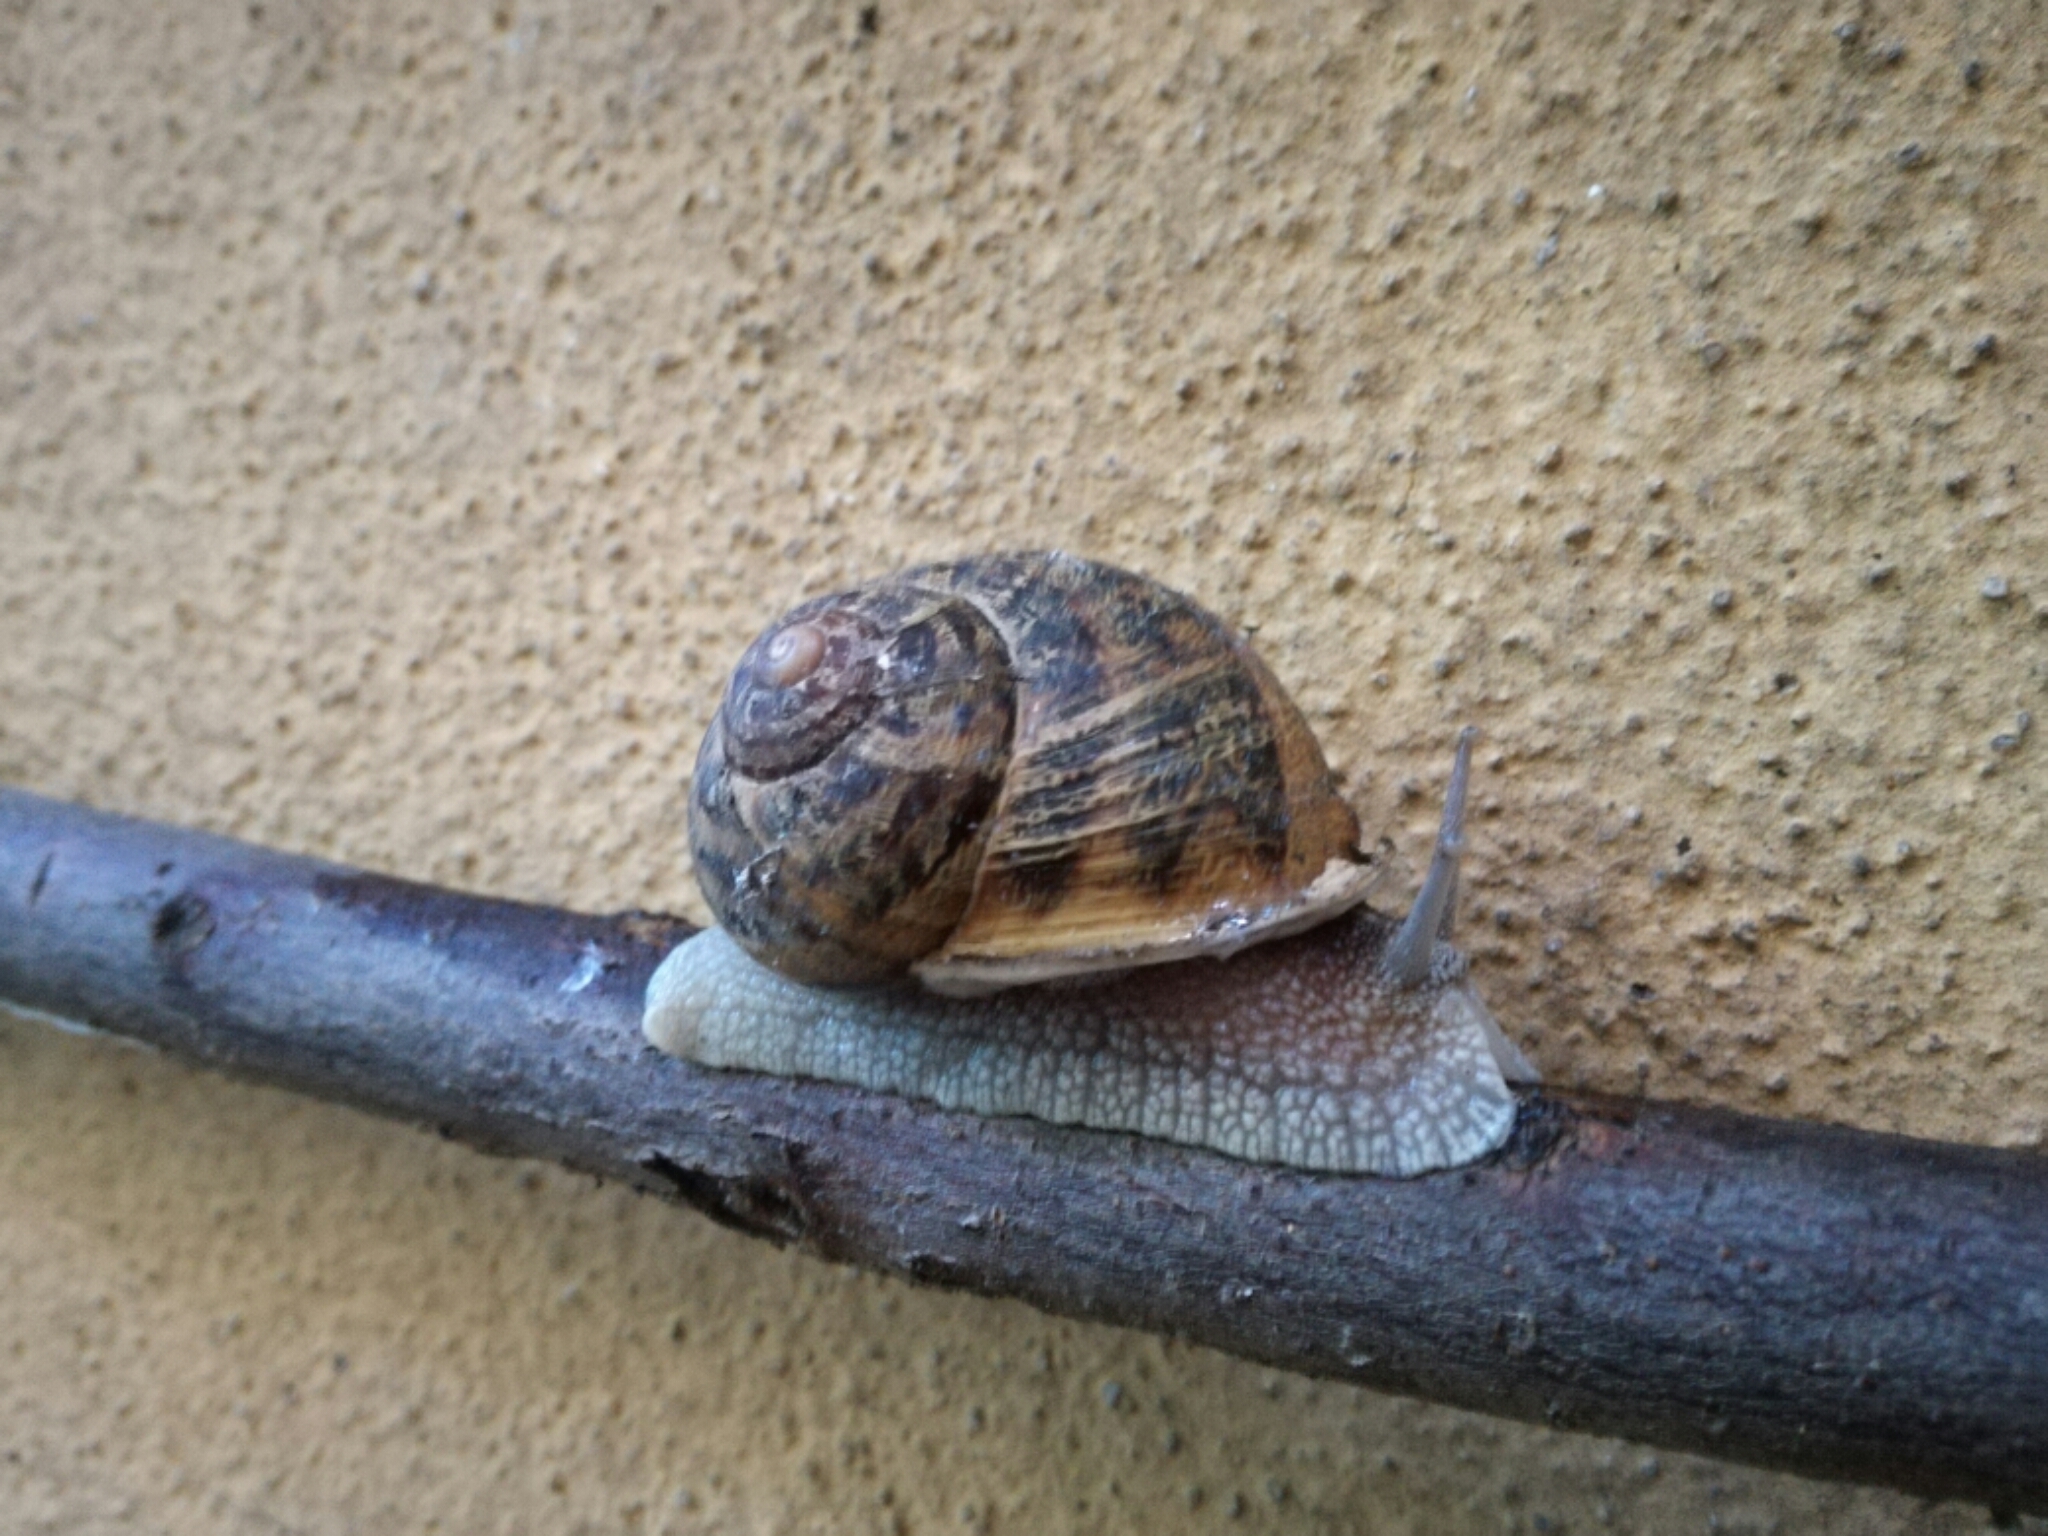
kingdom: Animalia
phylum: Mollusca
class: Gastropoda
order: Stylommatophora
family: Helicidae
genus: Cornu
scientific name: Cornu aspersum
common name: Brown garden snail
